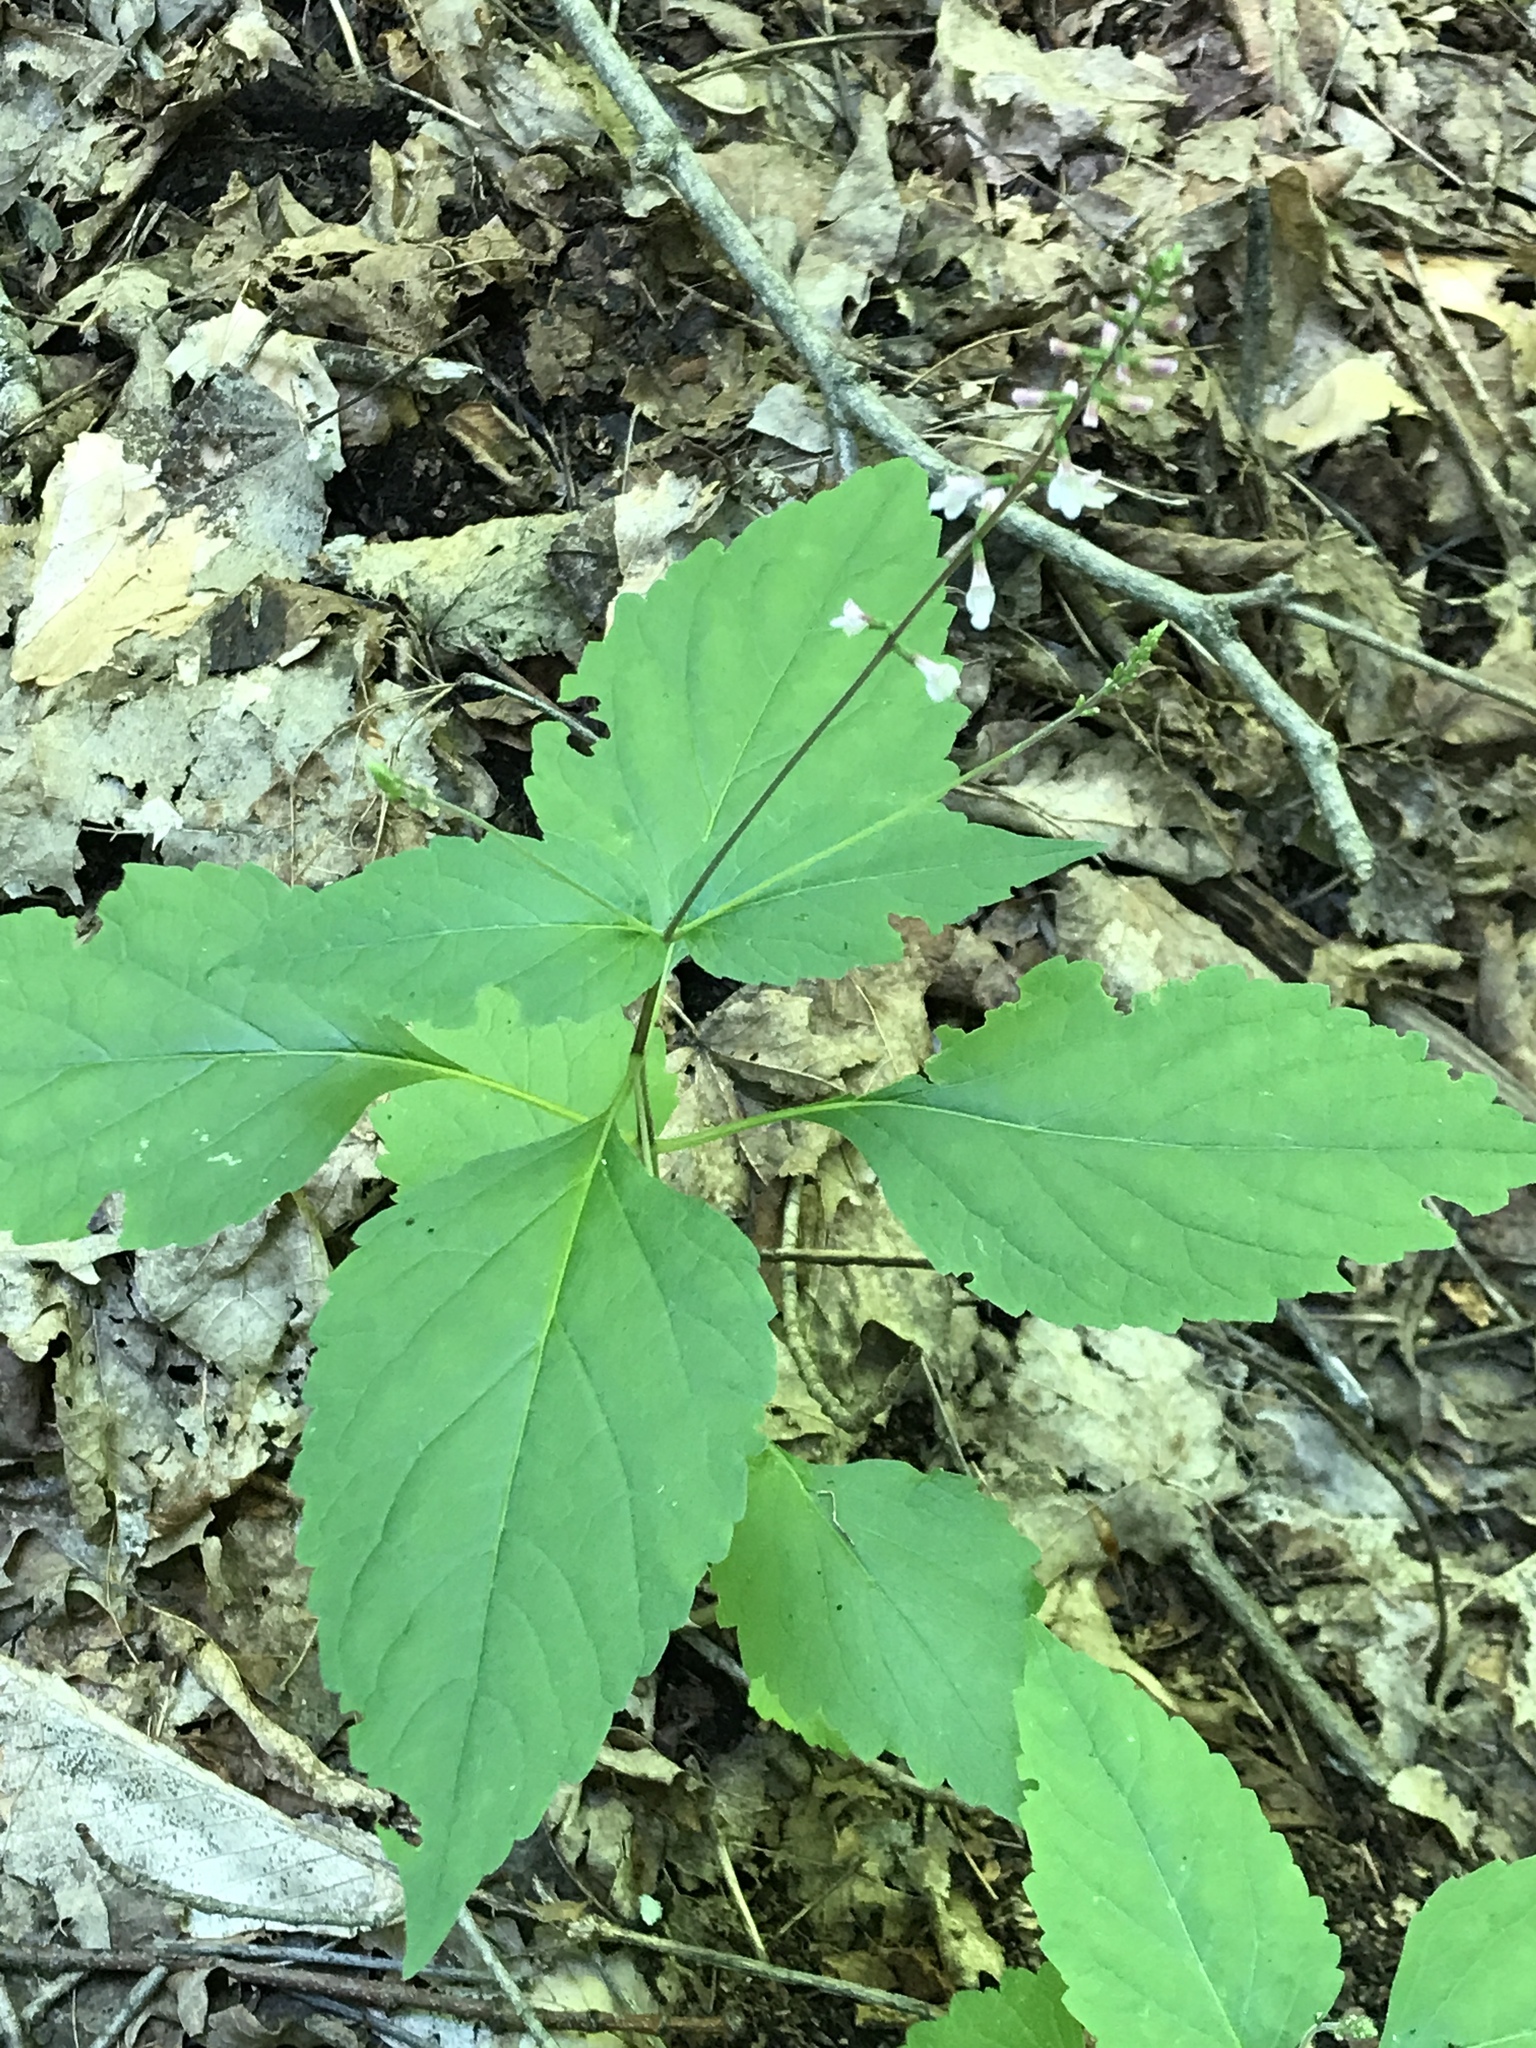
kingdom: Plantae
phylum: Tracheophyta
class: Magnoliopsida
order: Lamiales
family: Phrymaceae
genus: Phryma
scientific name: Phryma leptostachya
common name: American lopseed
